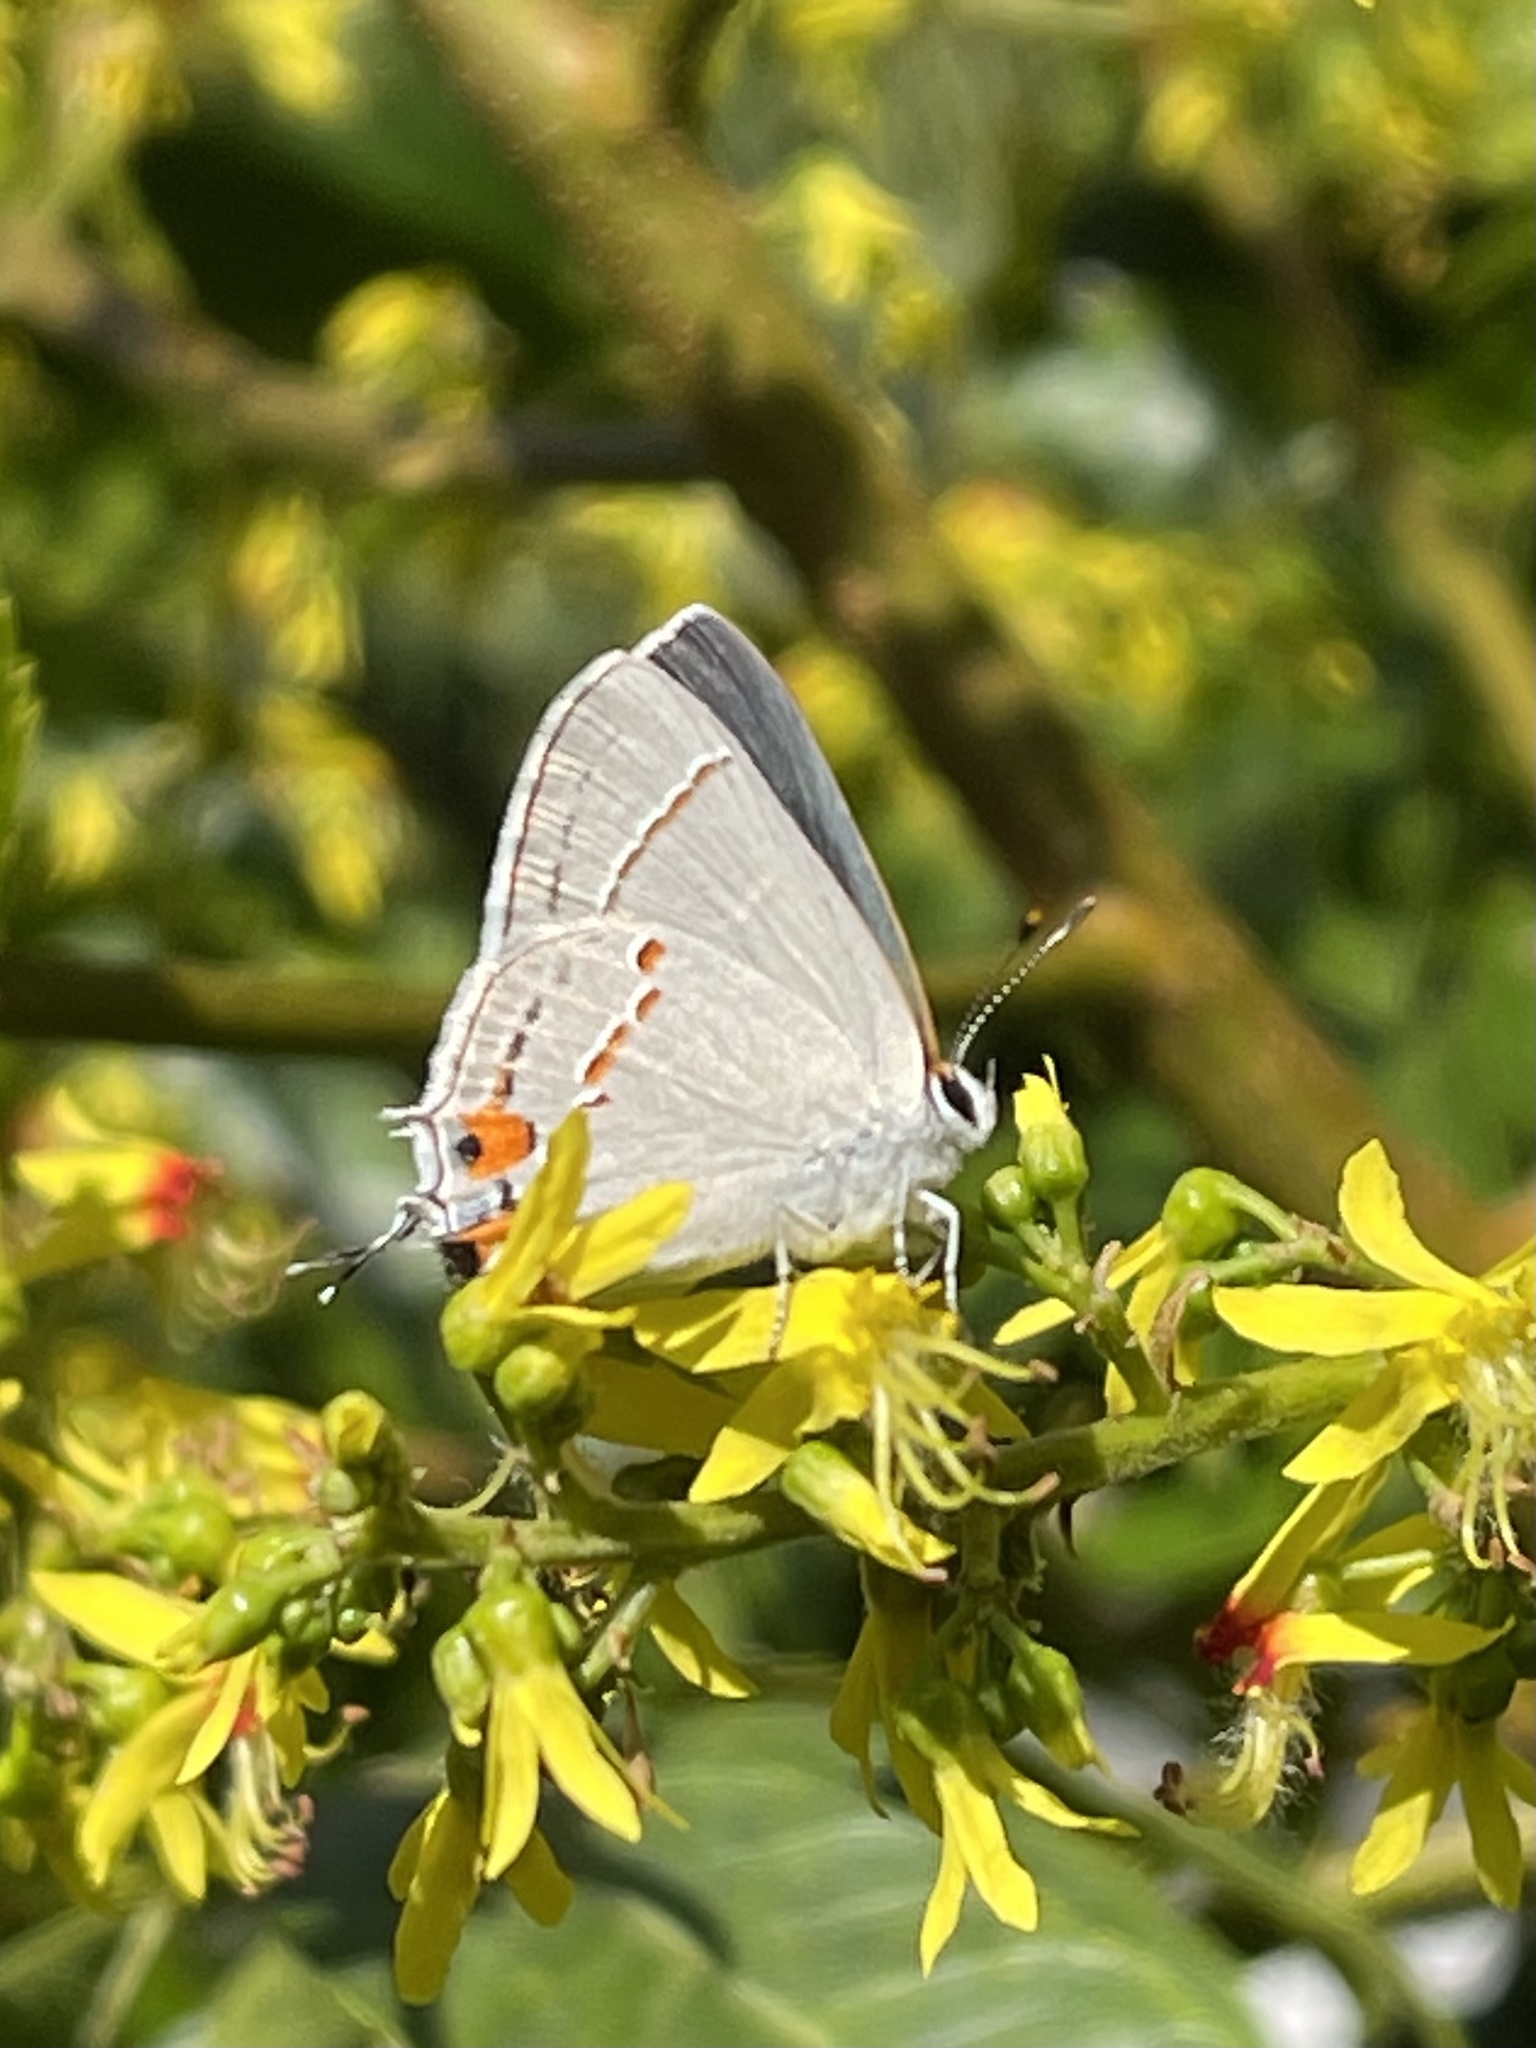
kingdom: Animalia
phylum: Arthropoda
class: Insecta
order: Lepidoptera
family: Lycaenidae
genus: Strymon
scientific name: Strymon melinus
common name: Gray hairstreak
